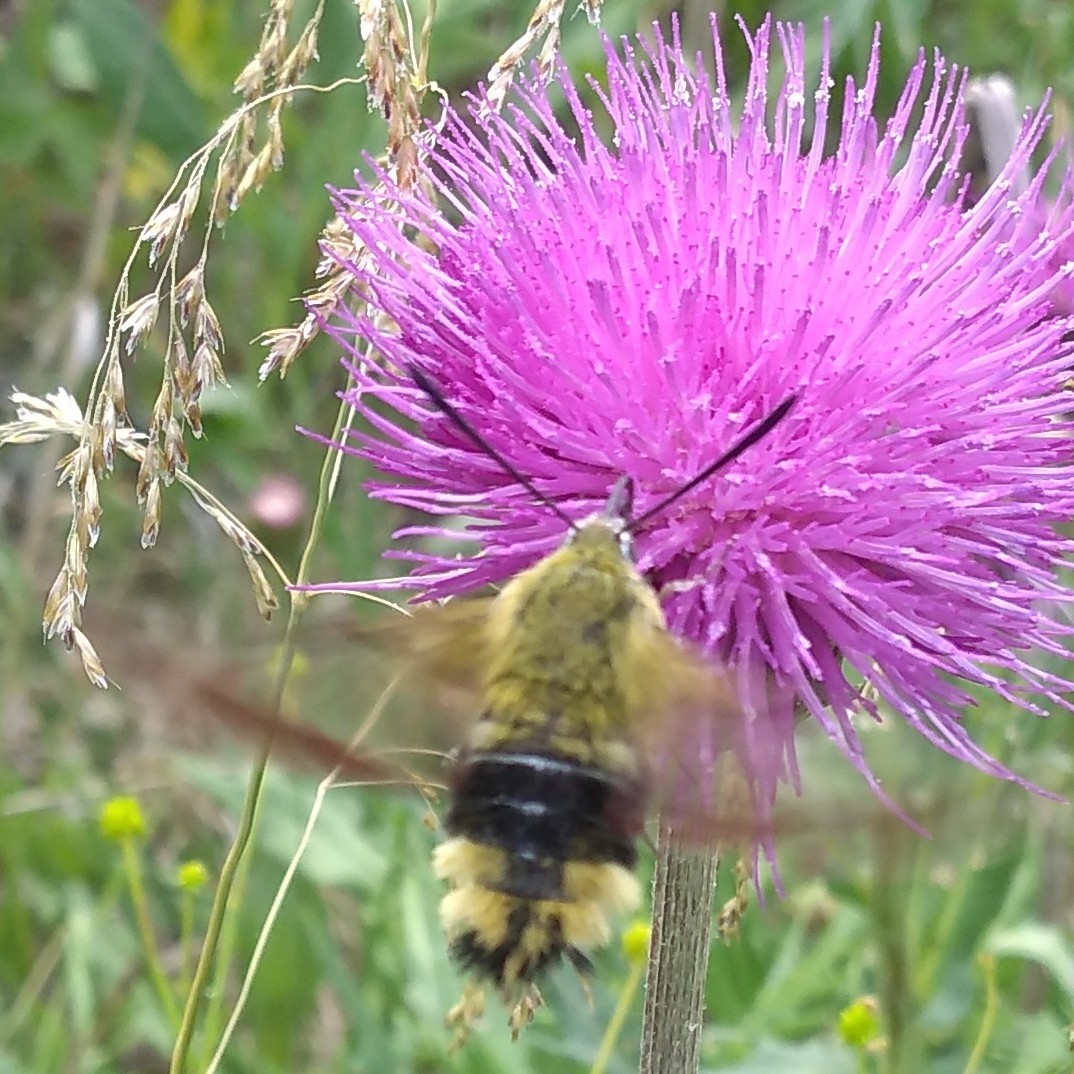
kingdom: Animalia
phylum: Arthropoda
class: Insecta
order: Lepidoptera
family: Sphingidae
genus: Hemaris
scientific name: Hemaris fuciformis
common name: Broad-bordered bee hawk-moth
